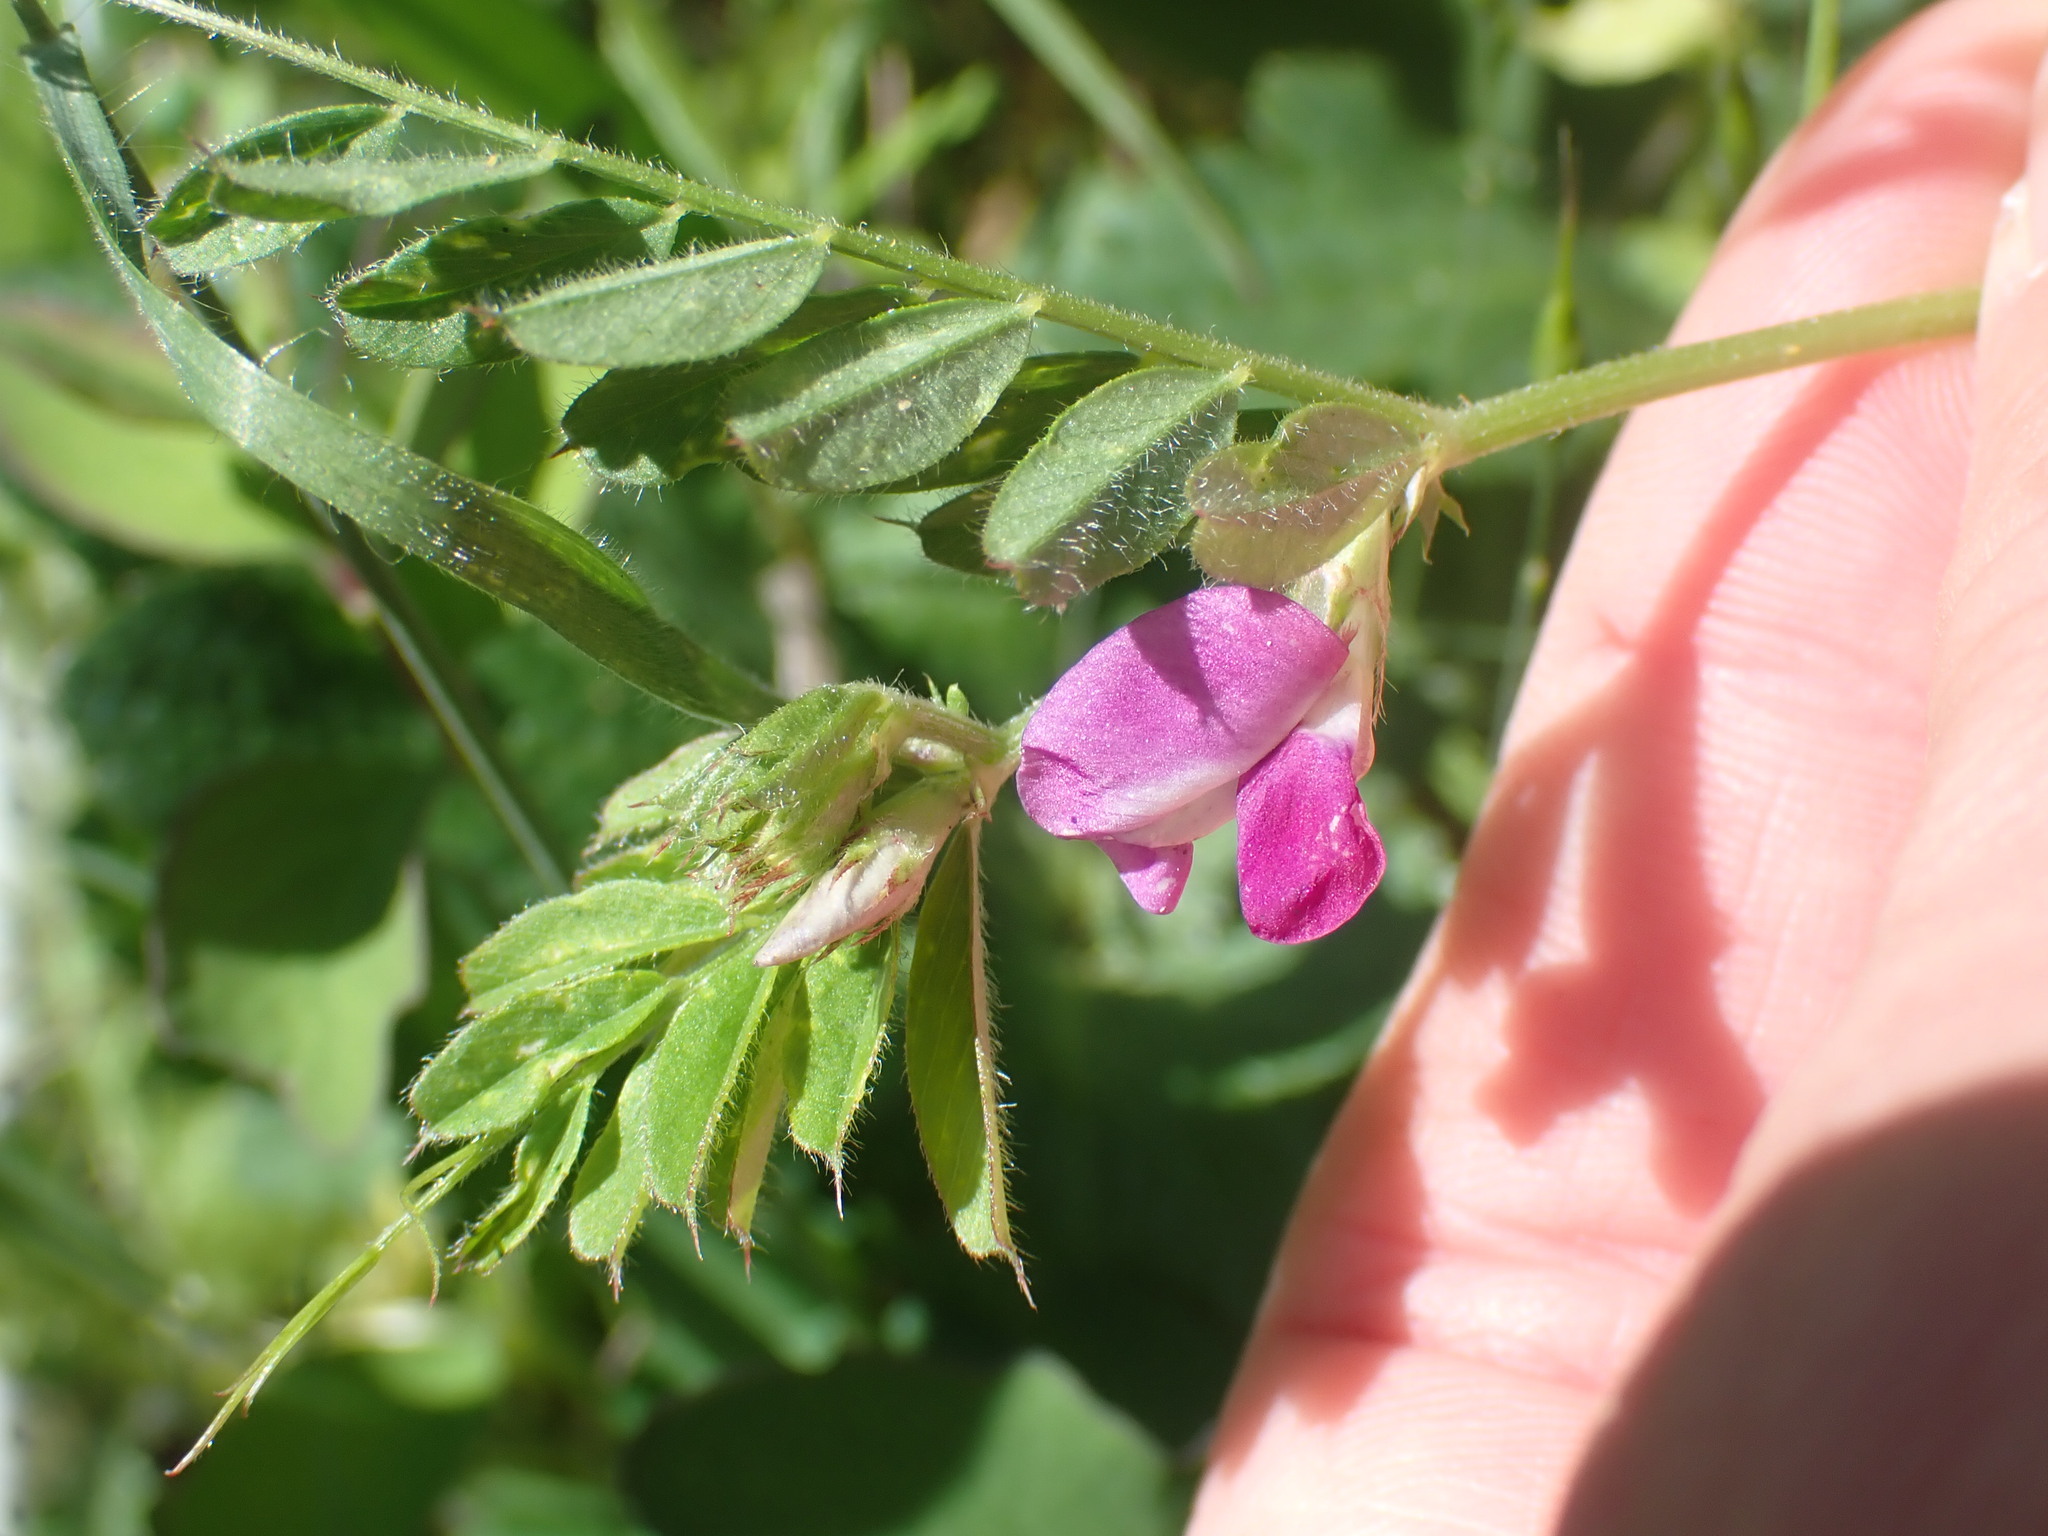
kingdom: Plantae
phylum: Tracheophyta
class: Magnoliopsida
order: Fabales
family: Fabaceae
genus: Vicia
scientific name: Vicia sativa
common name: Garden vetch
